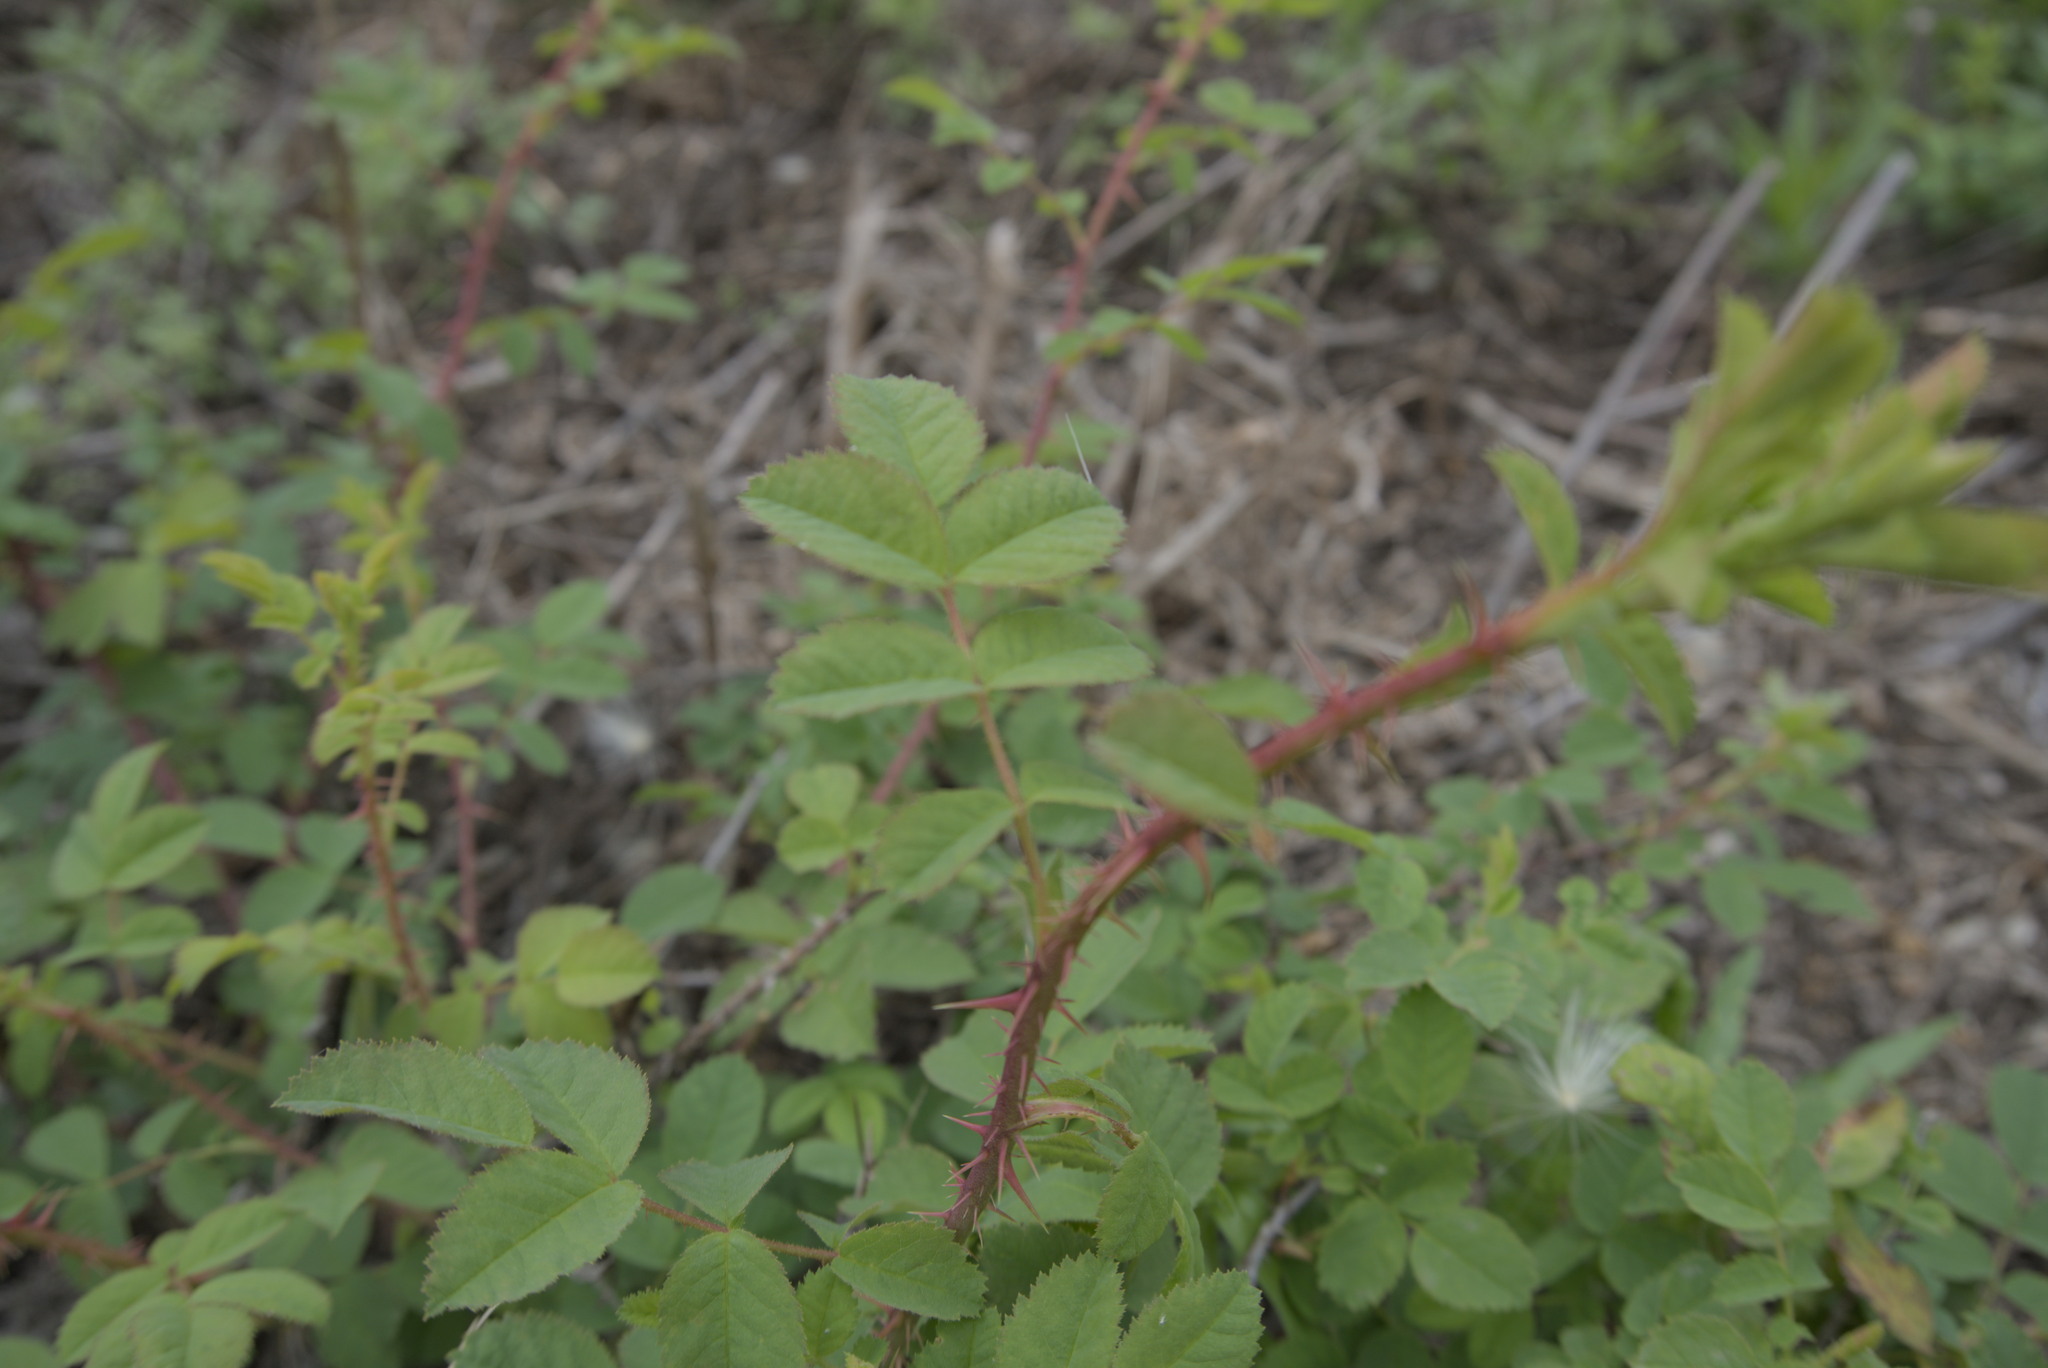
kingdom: Plantae
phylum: Tracheophyta
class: Magnoliopsida
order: Rosales
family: Rosaceae
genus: Rosa
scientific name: Rosa californica
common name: California rose
